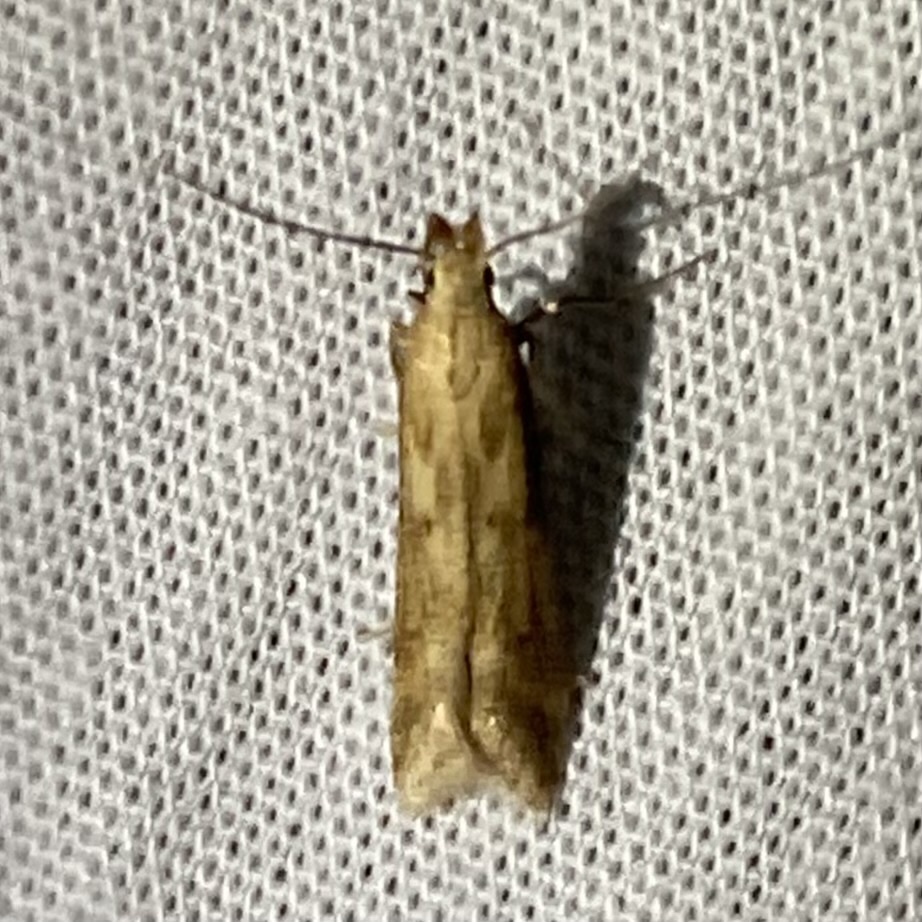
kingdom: Animalia
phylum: Arthropoda
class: Insecta
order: Lepidoptera
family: Gelechiidae
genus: Metzneria
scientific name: Metzneria lappella
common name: Burdock neb
